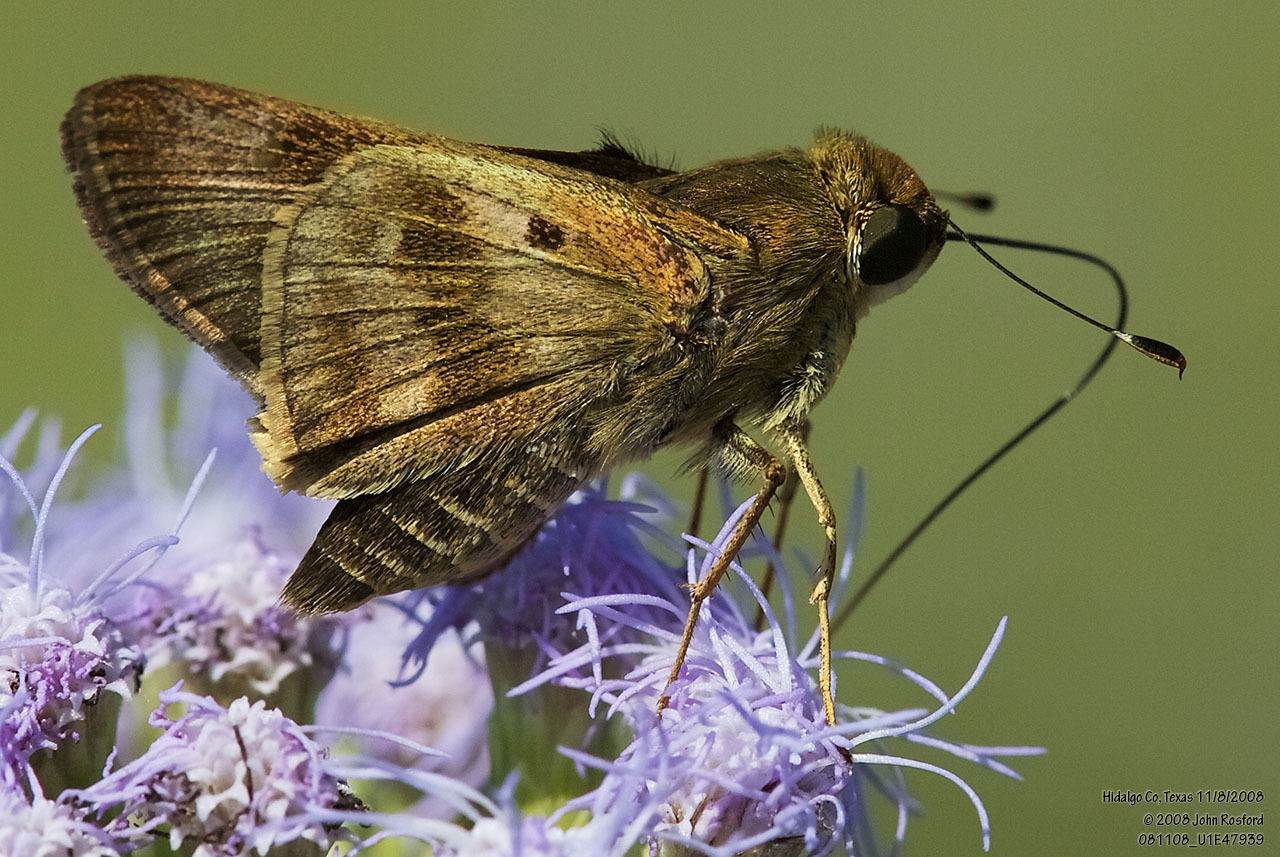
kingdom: Animalia
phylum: Arthropoda
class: Insecta
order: Lepidoptera
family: Hesperiidae
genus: Nyctelius
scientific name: Nyctelius nyctelius
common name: Violet-banded skipper
